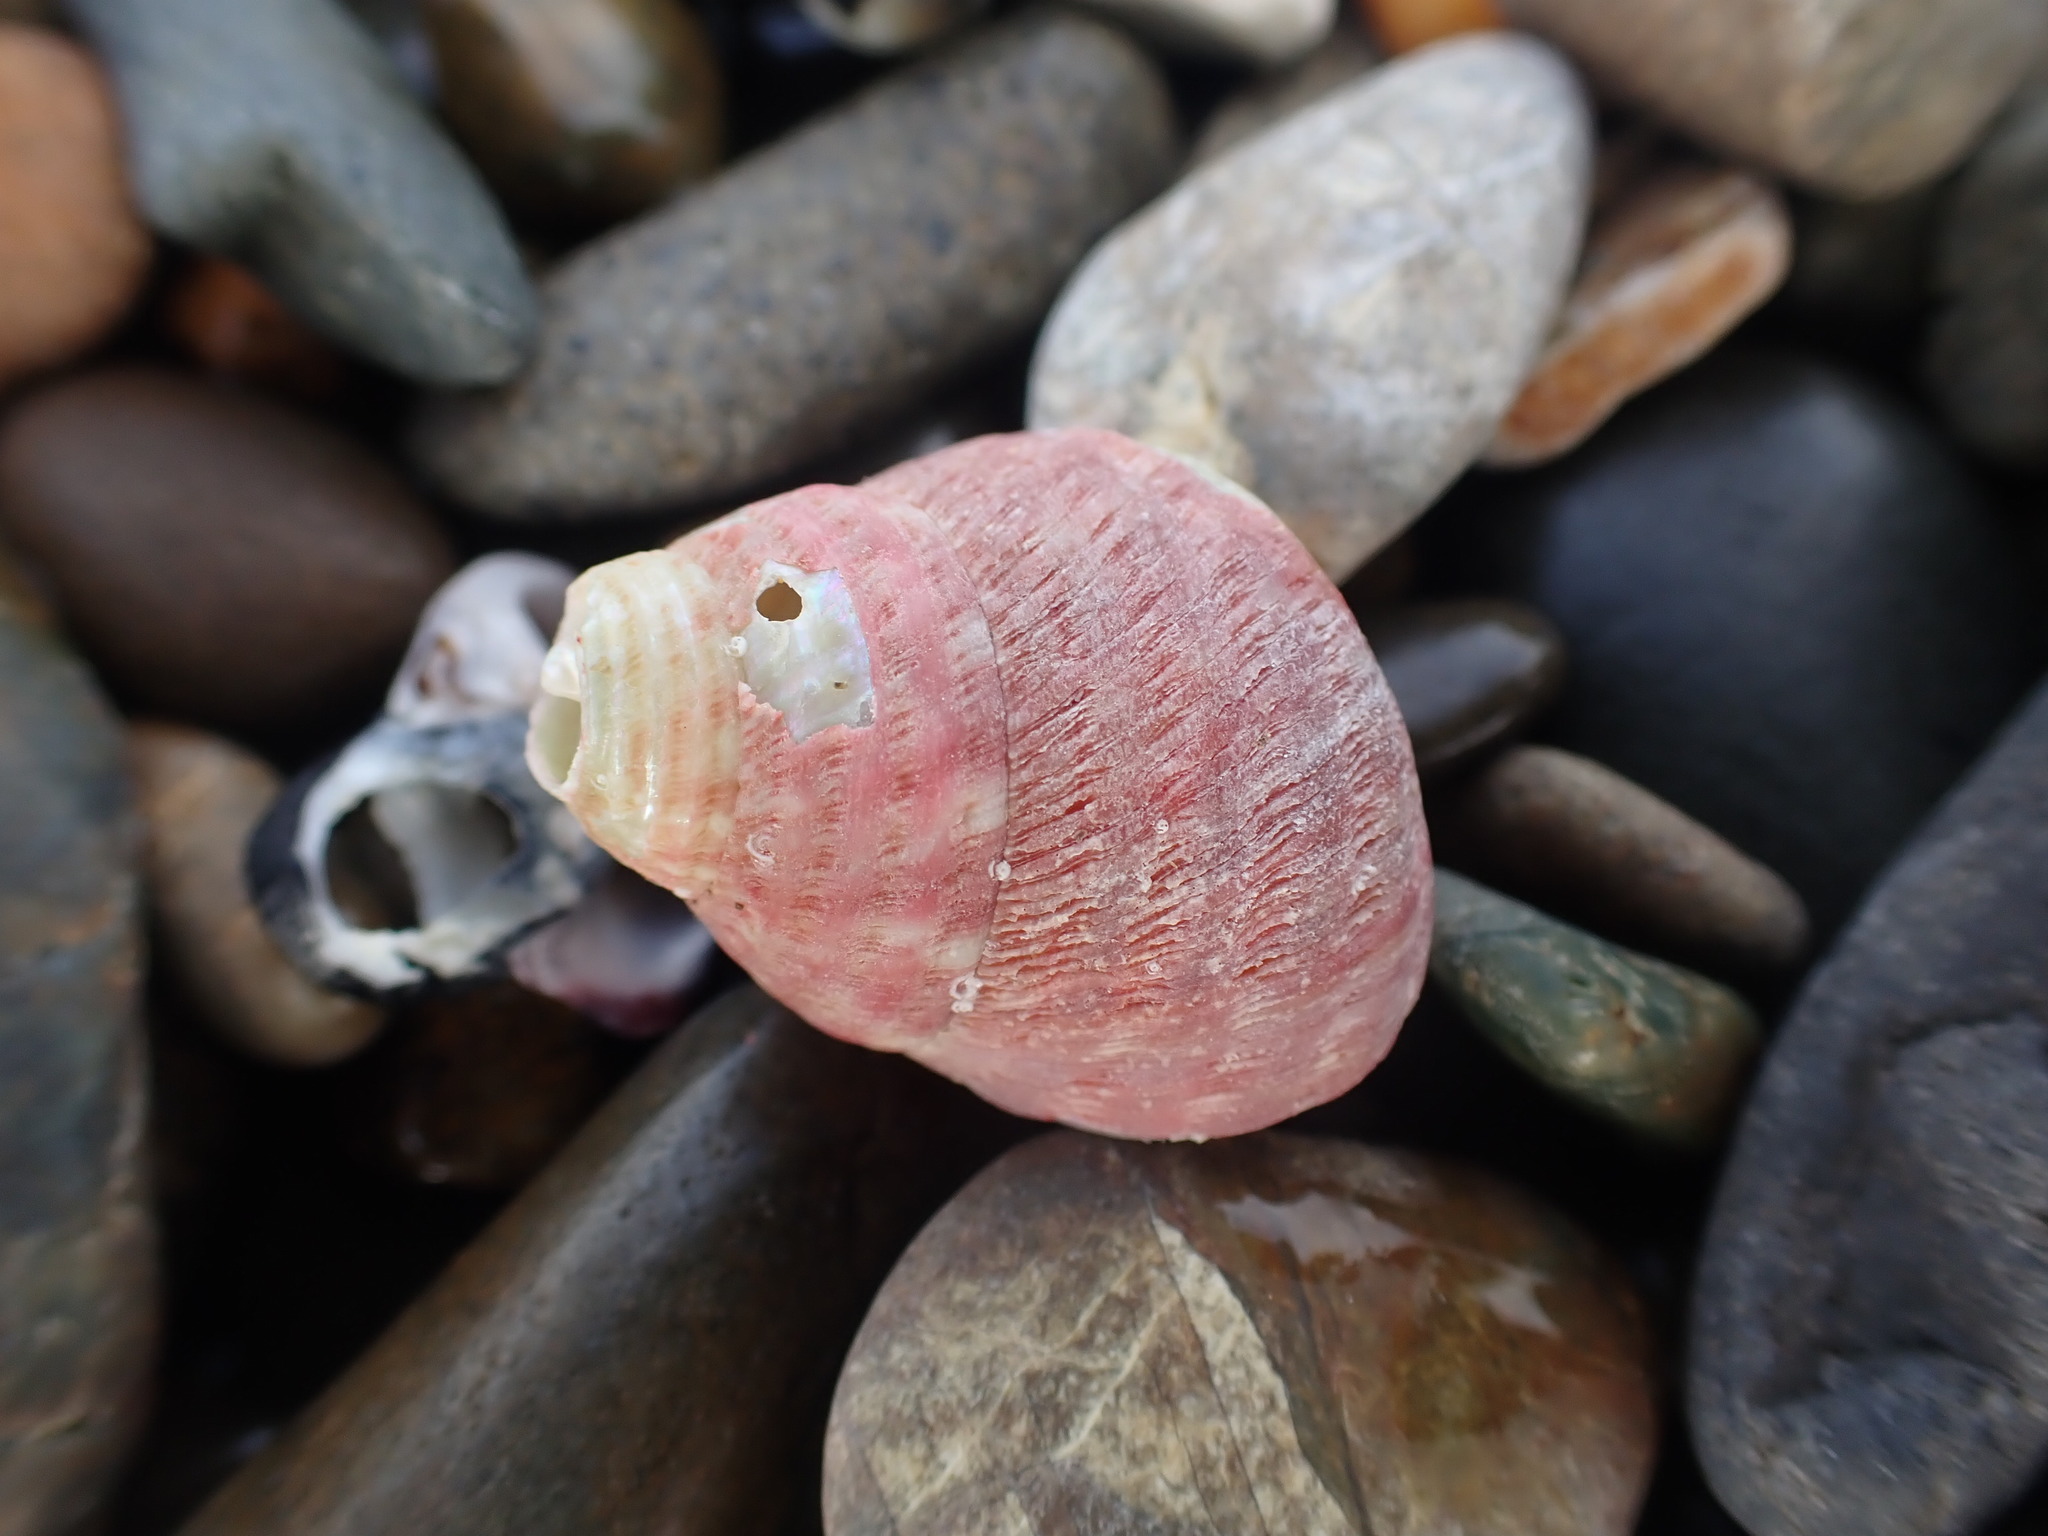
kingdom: Animalia
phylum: Mollusca
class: Gastropoda
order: Trochida
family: Trochidae
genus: Micrelenchus
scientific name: Micrelenchus purpureus
